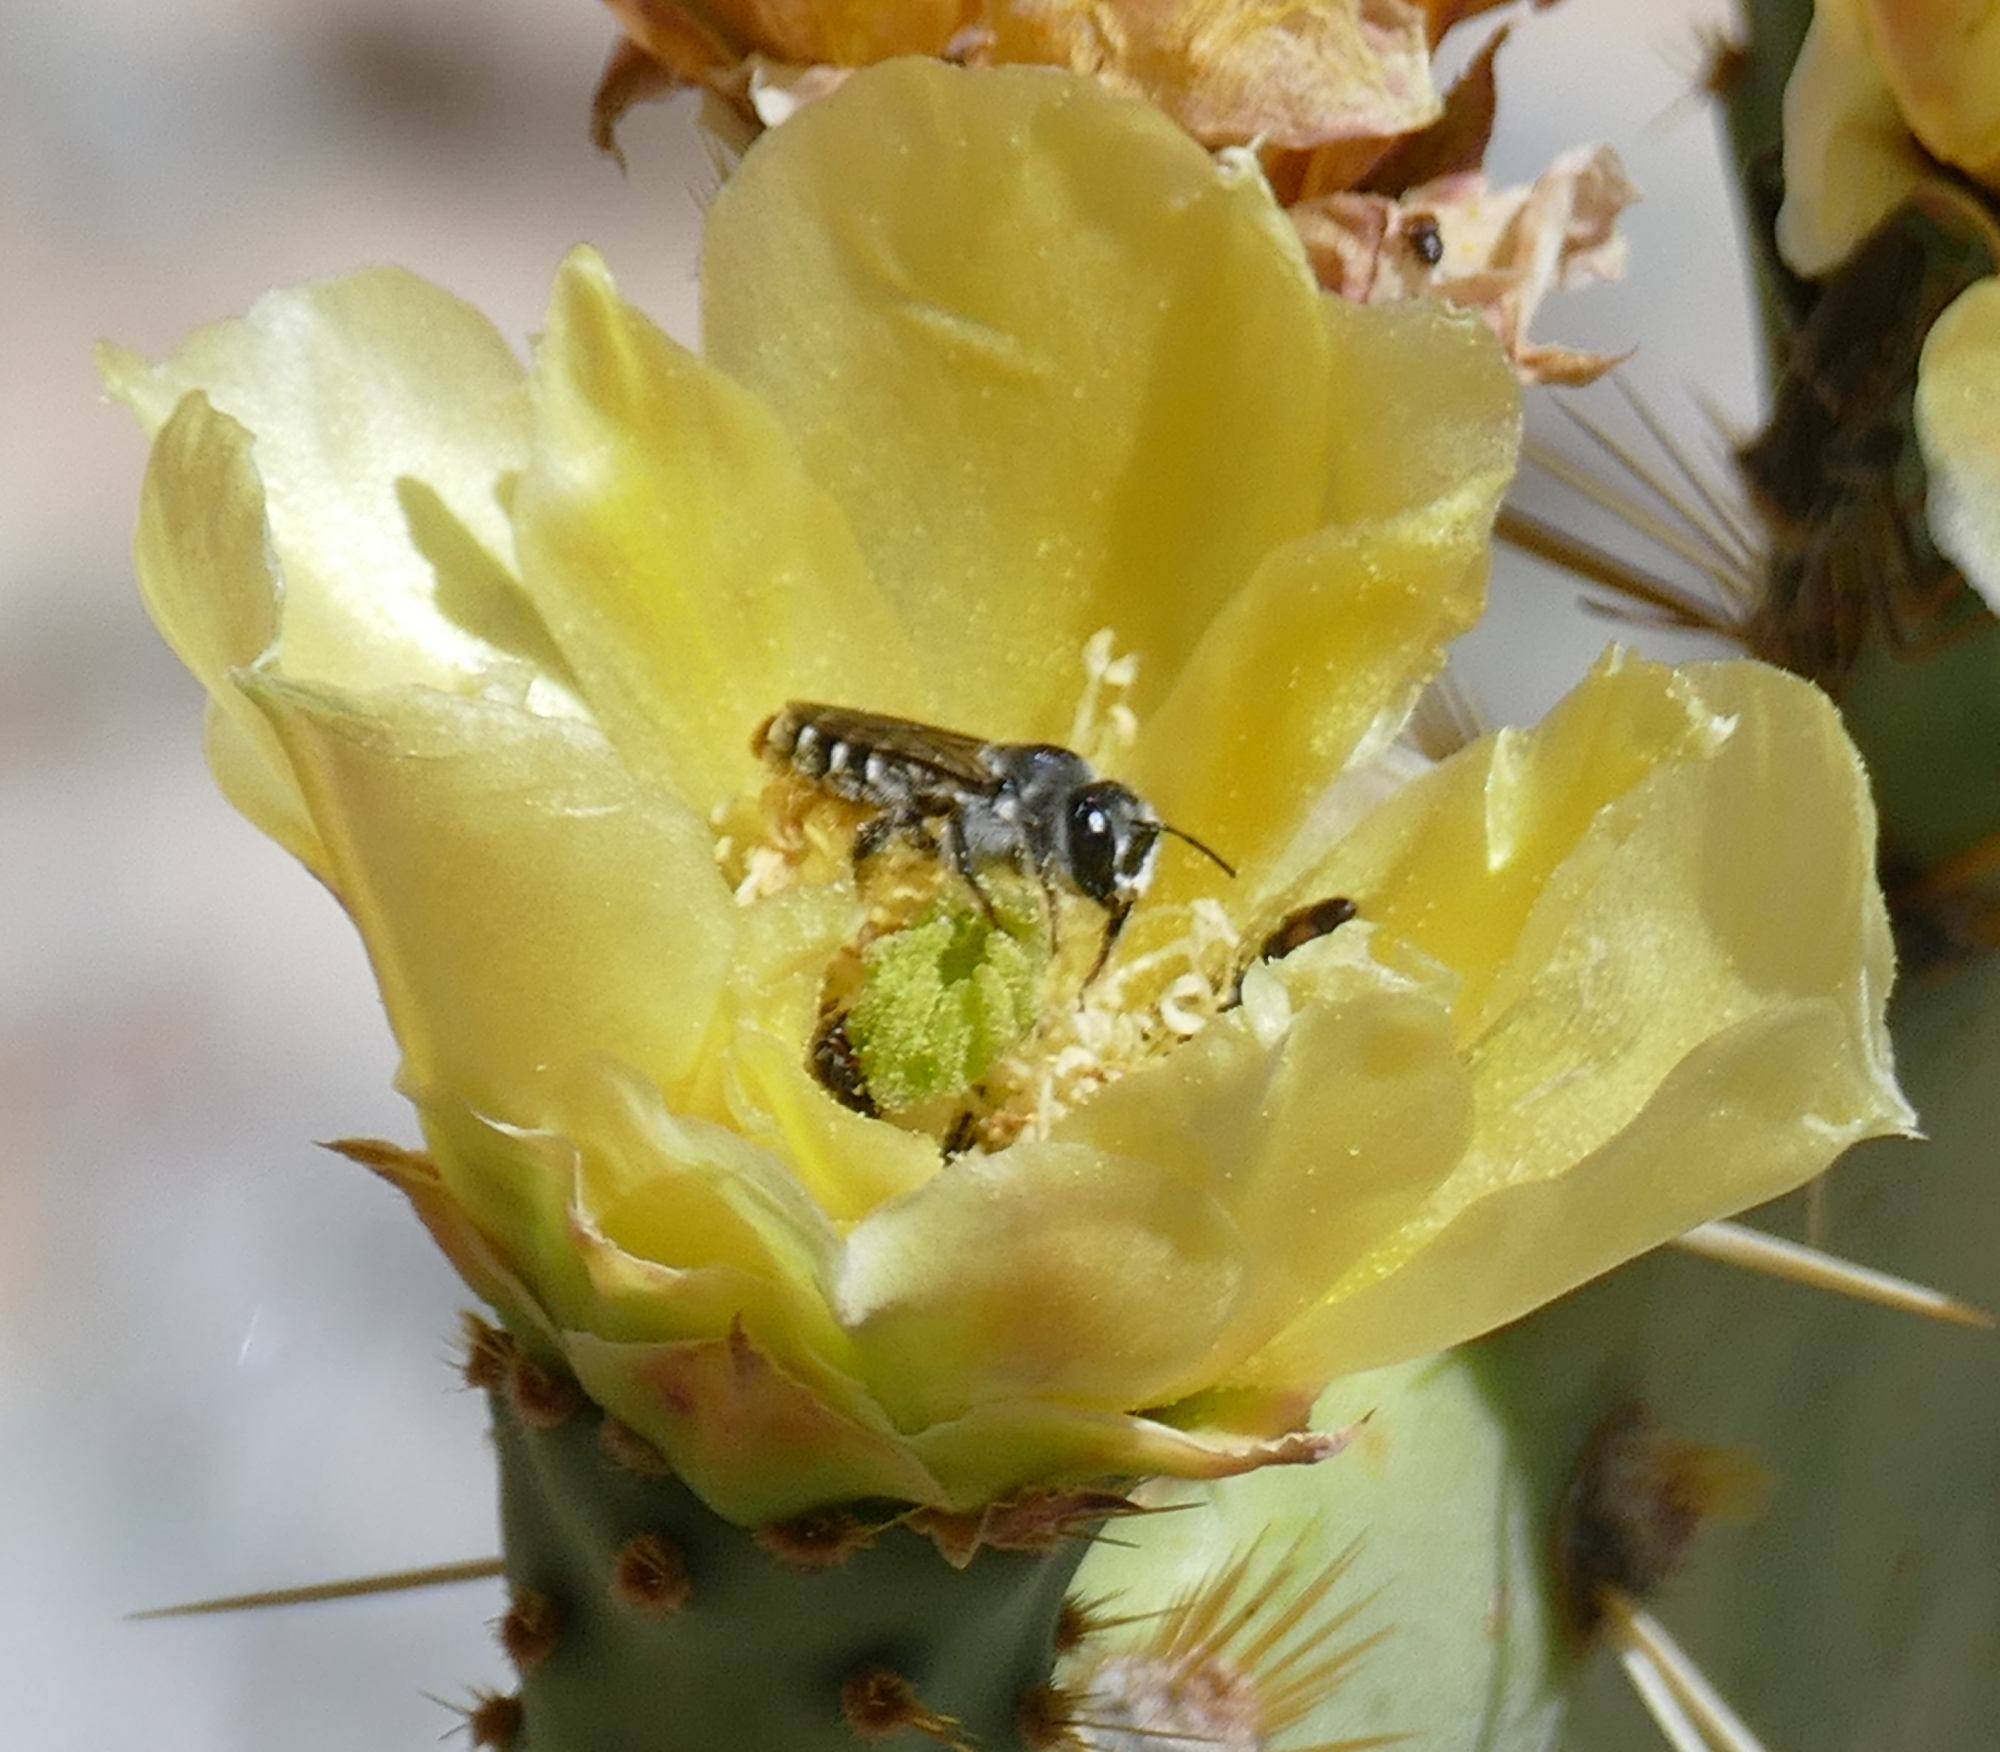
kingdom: Animalia
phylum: Arthropoda
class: Insecta
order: Hymenoptera
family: Megachilidae
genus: Lithurgopsis
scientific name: Lithurgopsis apicalis
